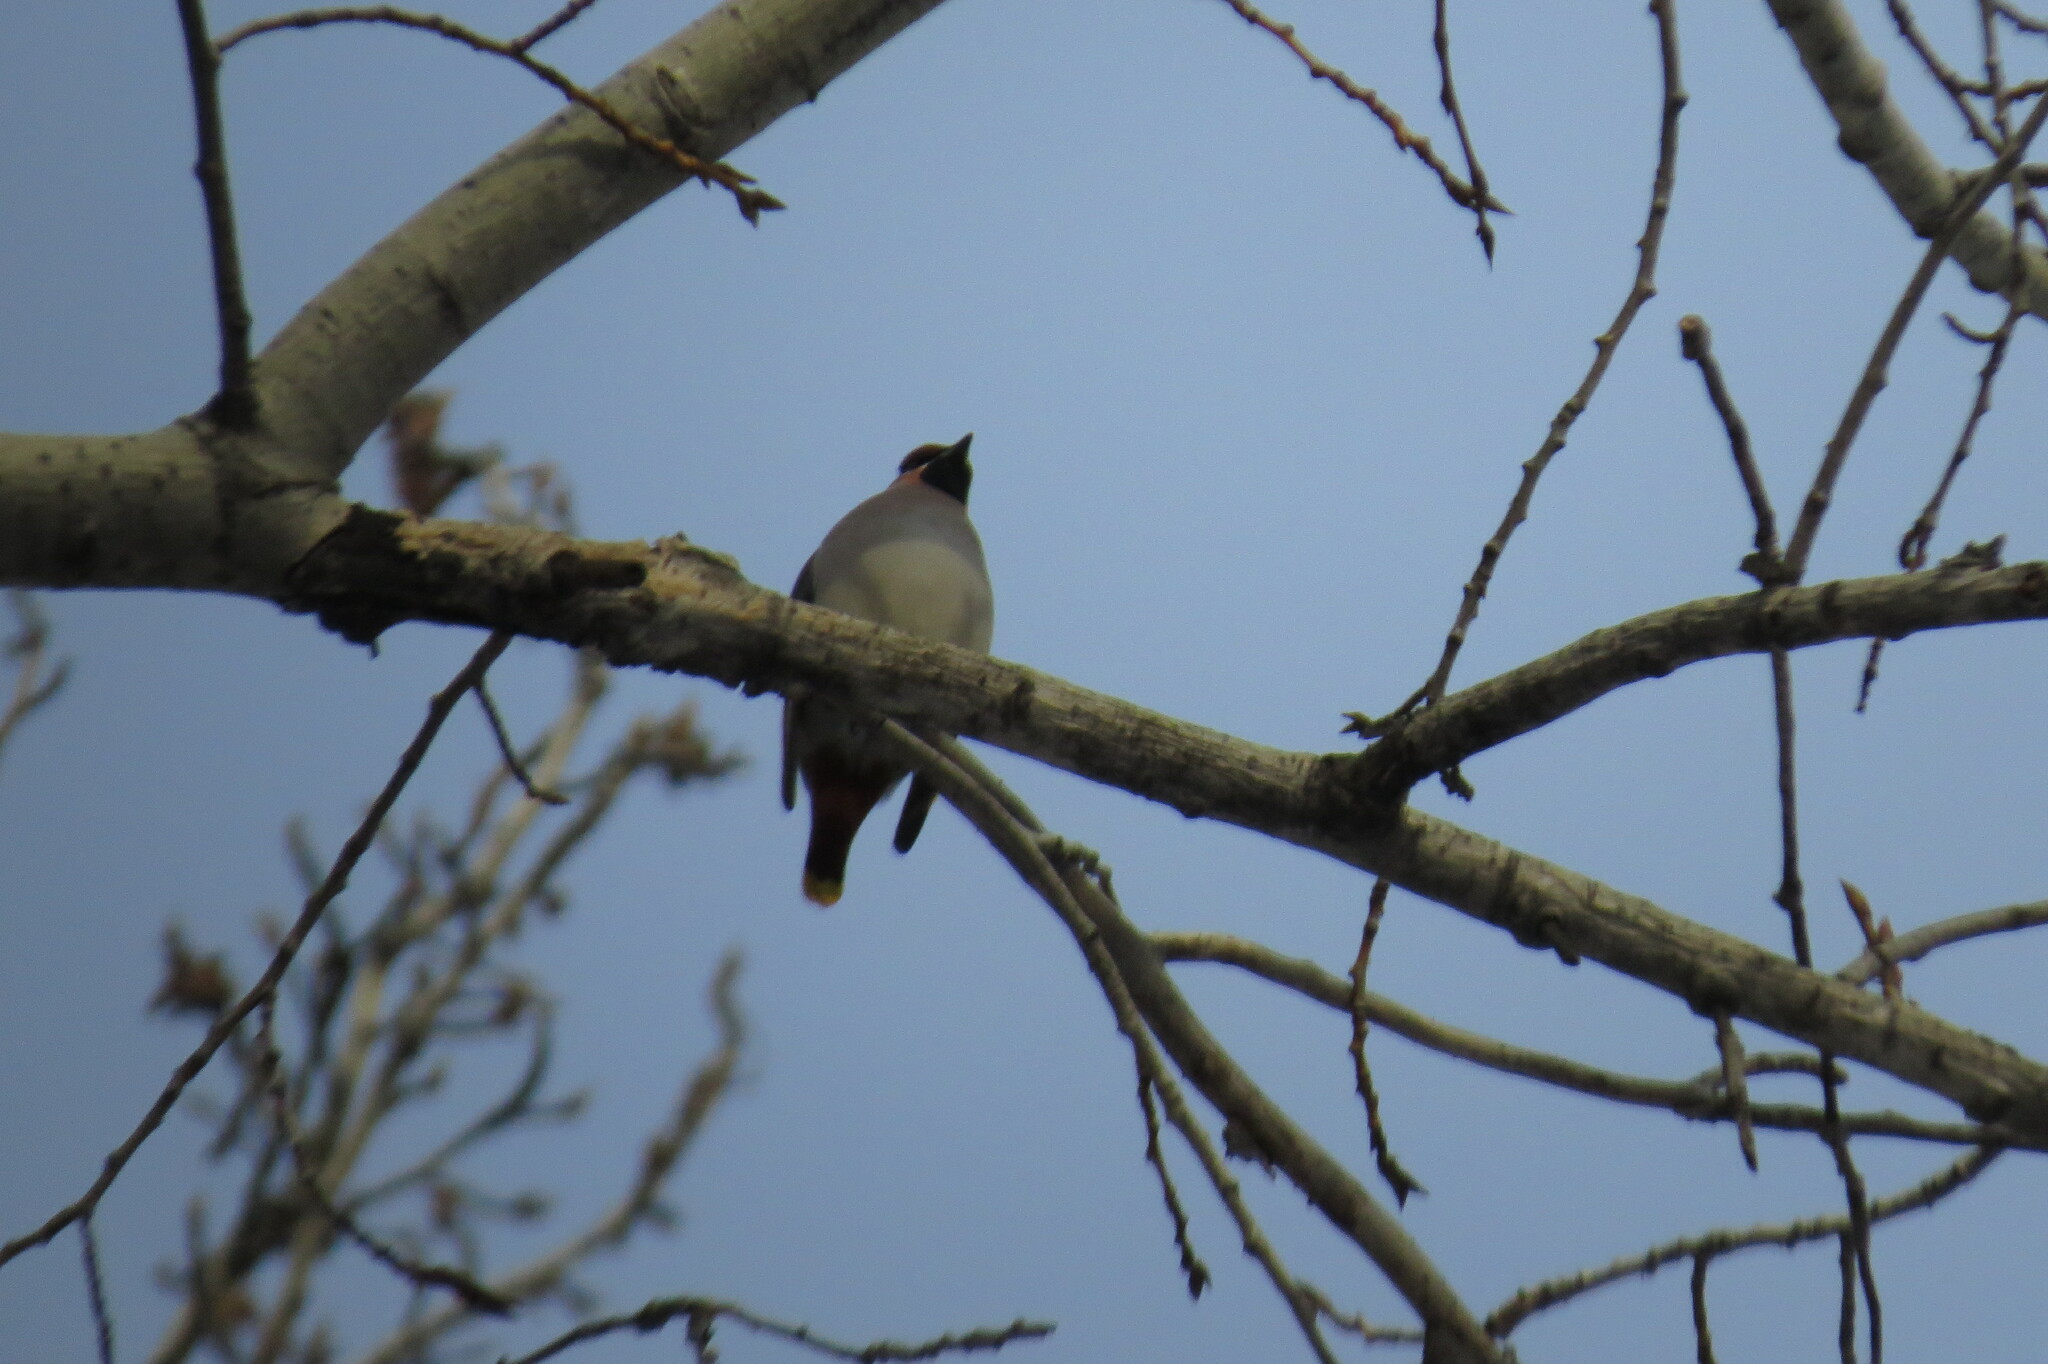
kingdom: Animalia
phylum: Chordata
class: Aves
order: Passeriformes
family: Bombycillidae
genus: Bombycilla
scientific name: Bombycilla garrulus
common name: Bohemian waxwing
